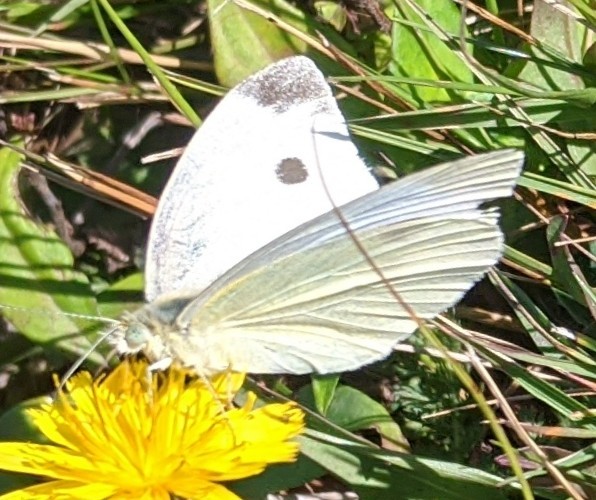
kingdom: Animalia
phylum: Arthropoda
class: Insecta
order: Lepidoptera
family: Pieridae
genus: Pieris
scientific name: Pieris rapae
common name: Small white
